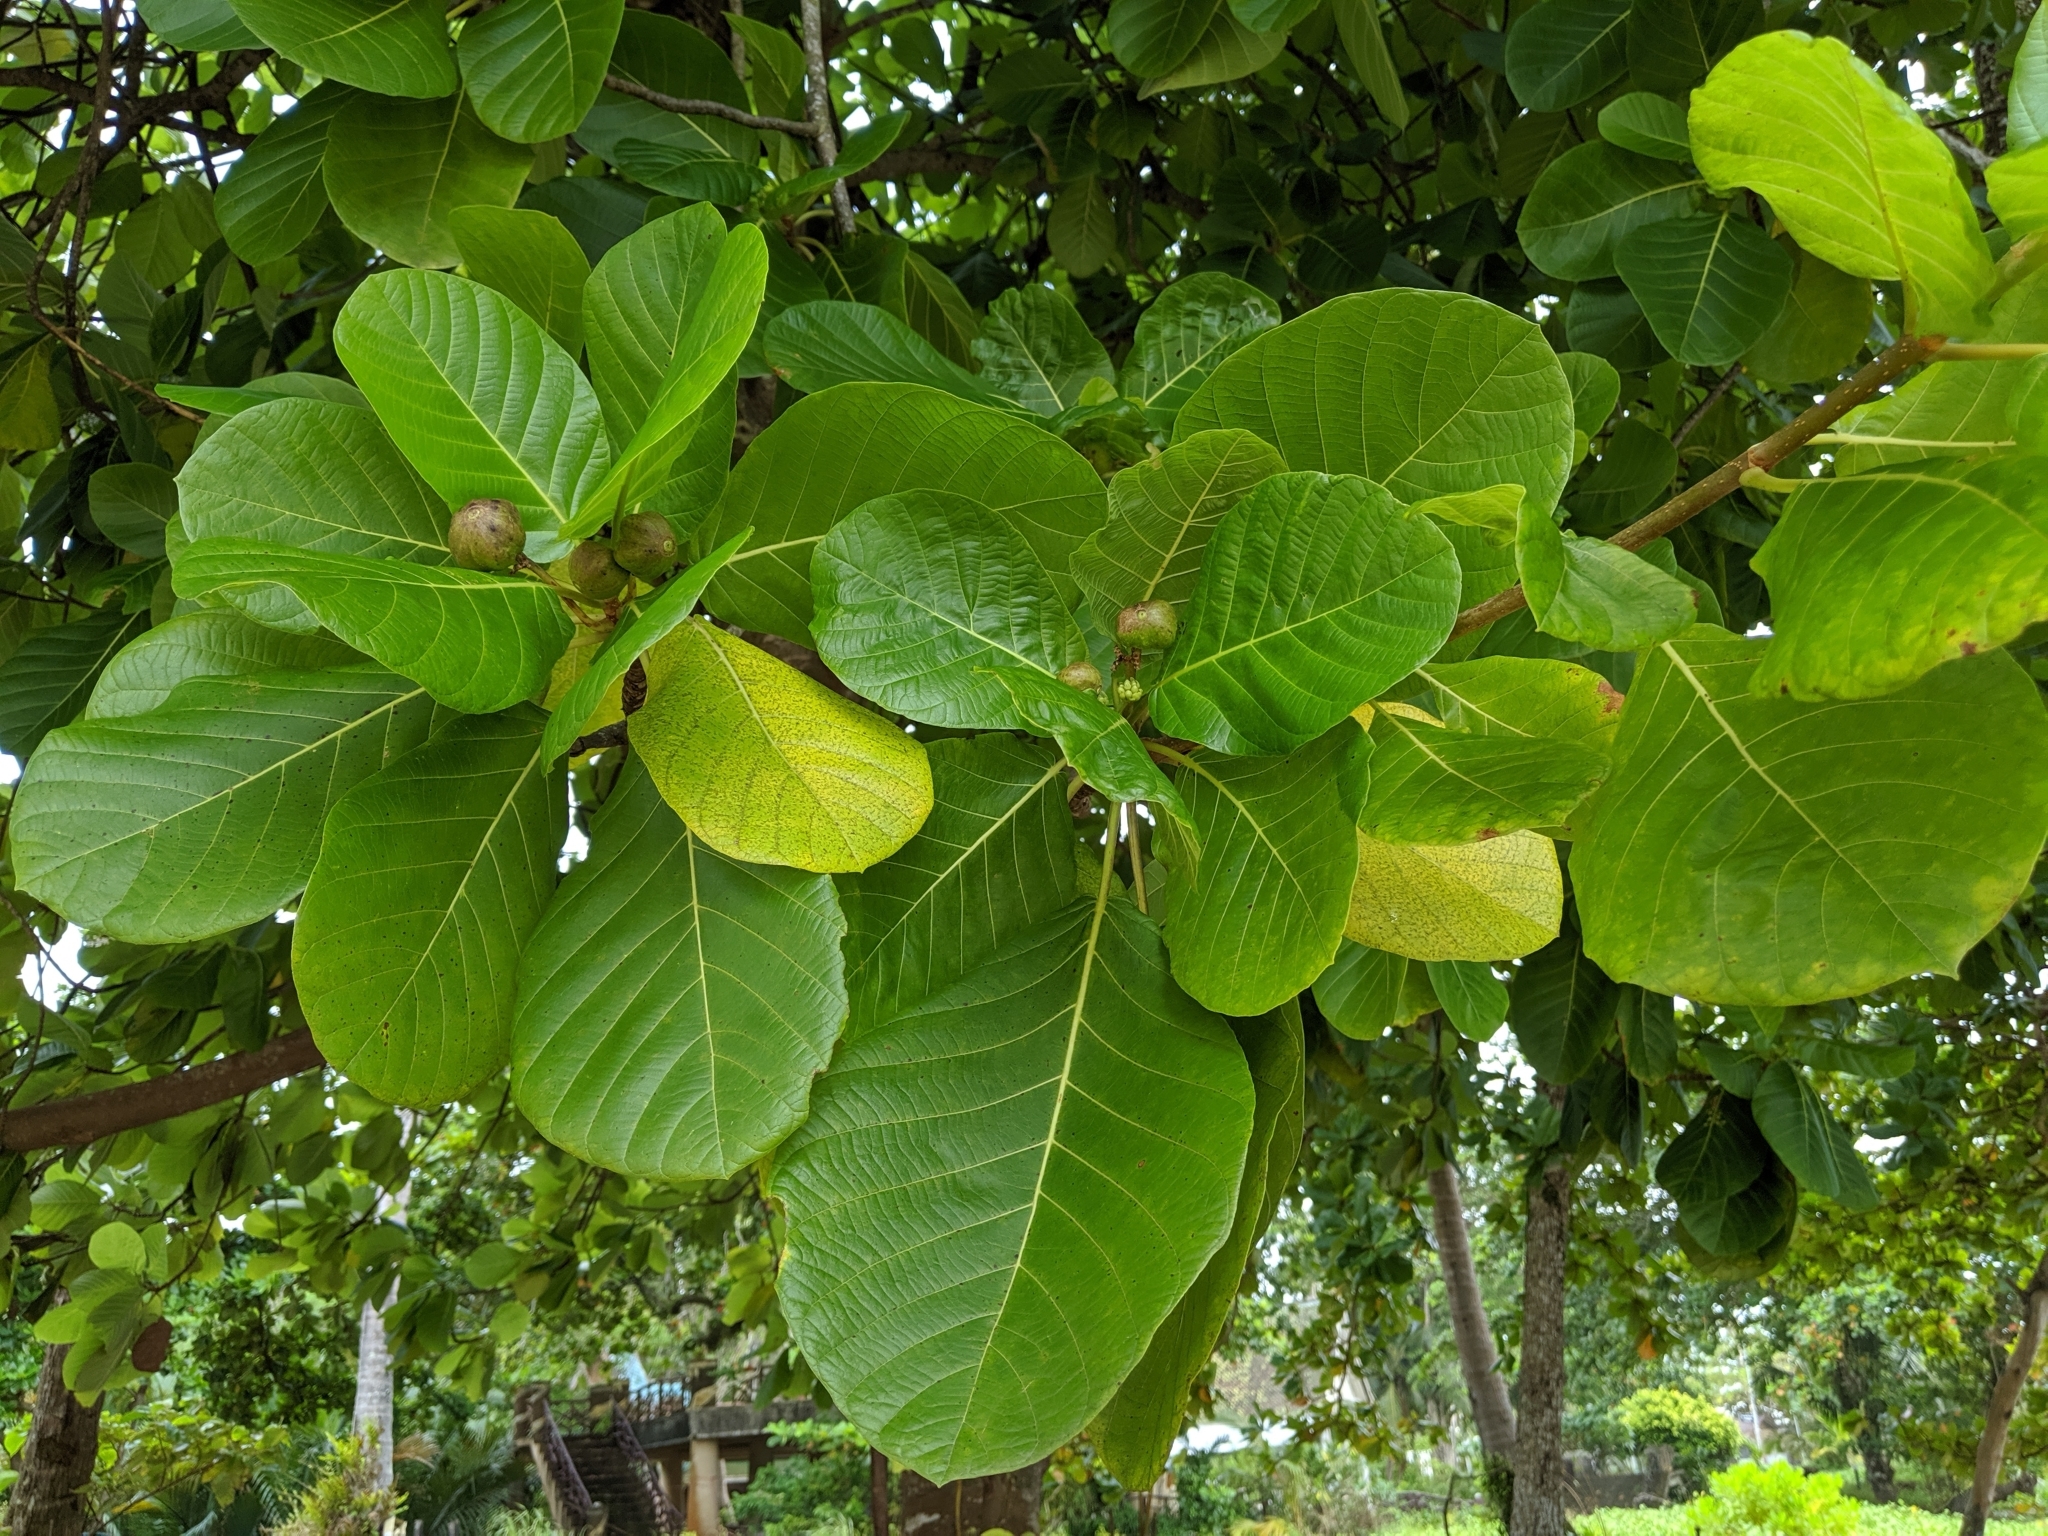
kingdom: Plantae
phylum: Tracheophyta
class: Magnoliopsida
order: Gentianales
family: Rubiaceae
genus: Guettarda
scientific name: Guettarda speciosa
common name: Sea randa
